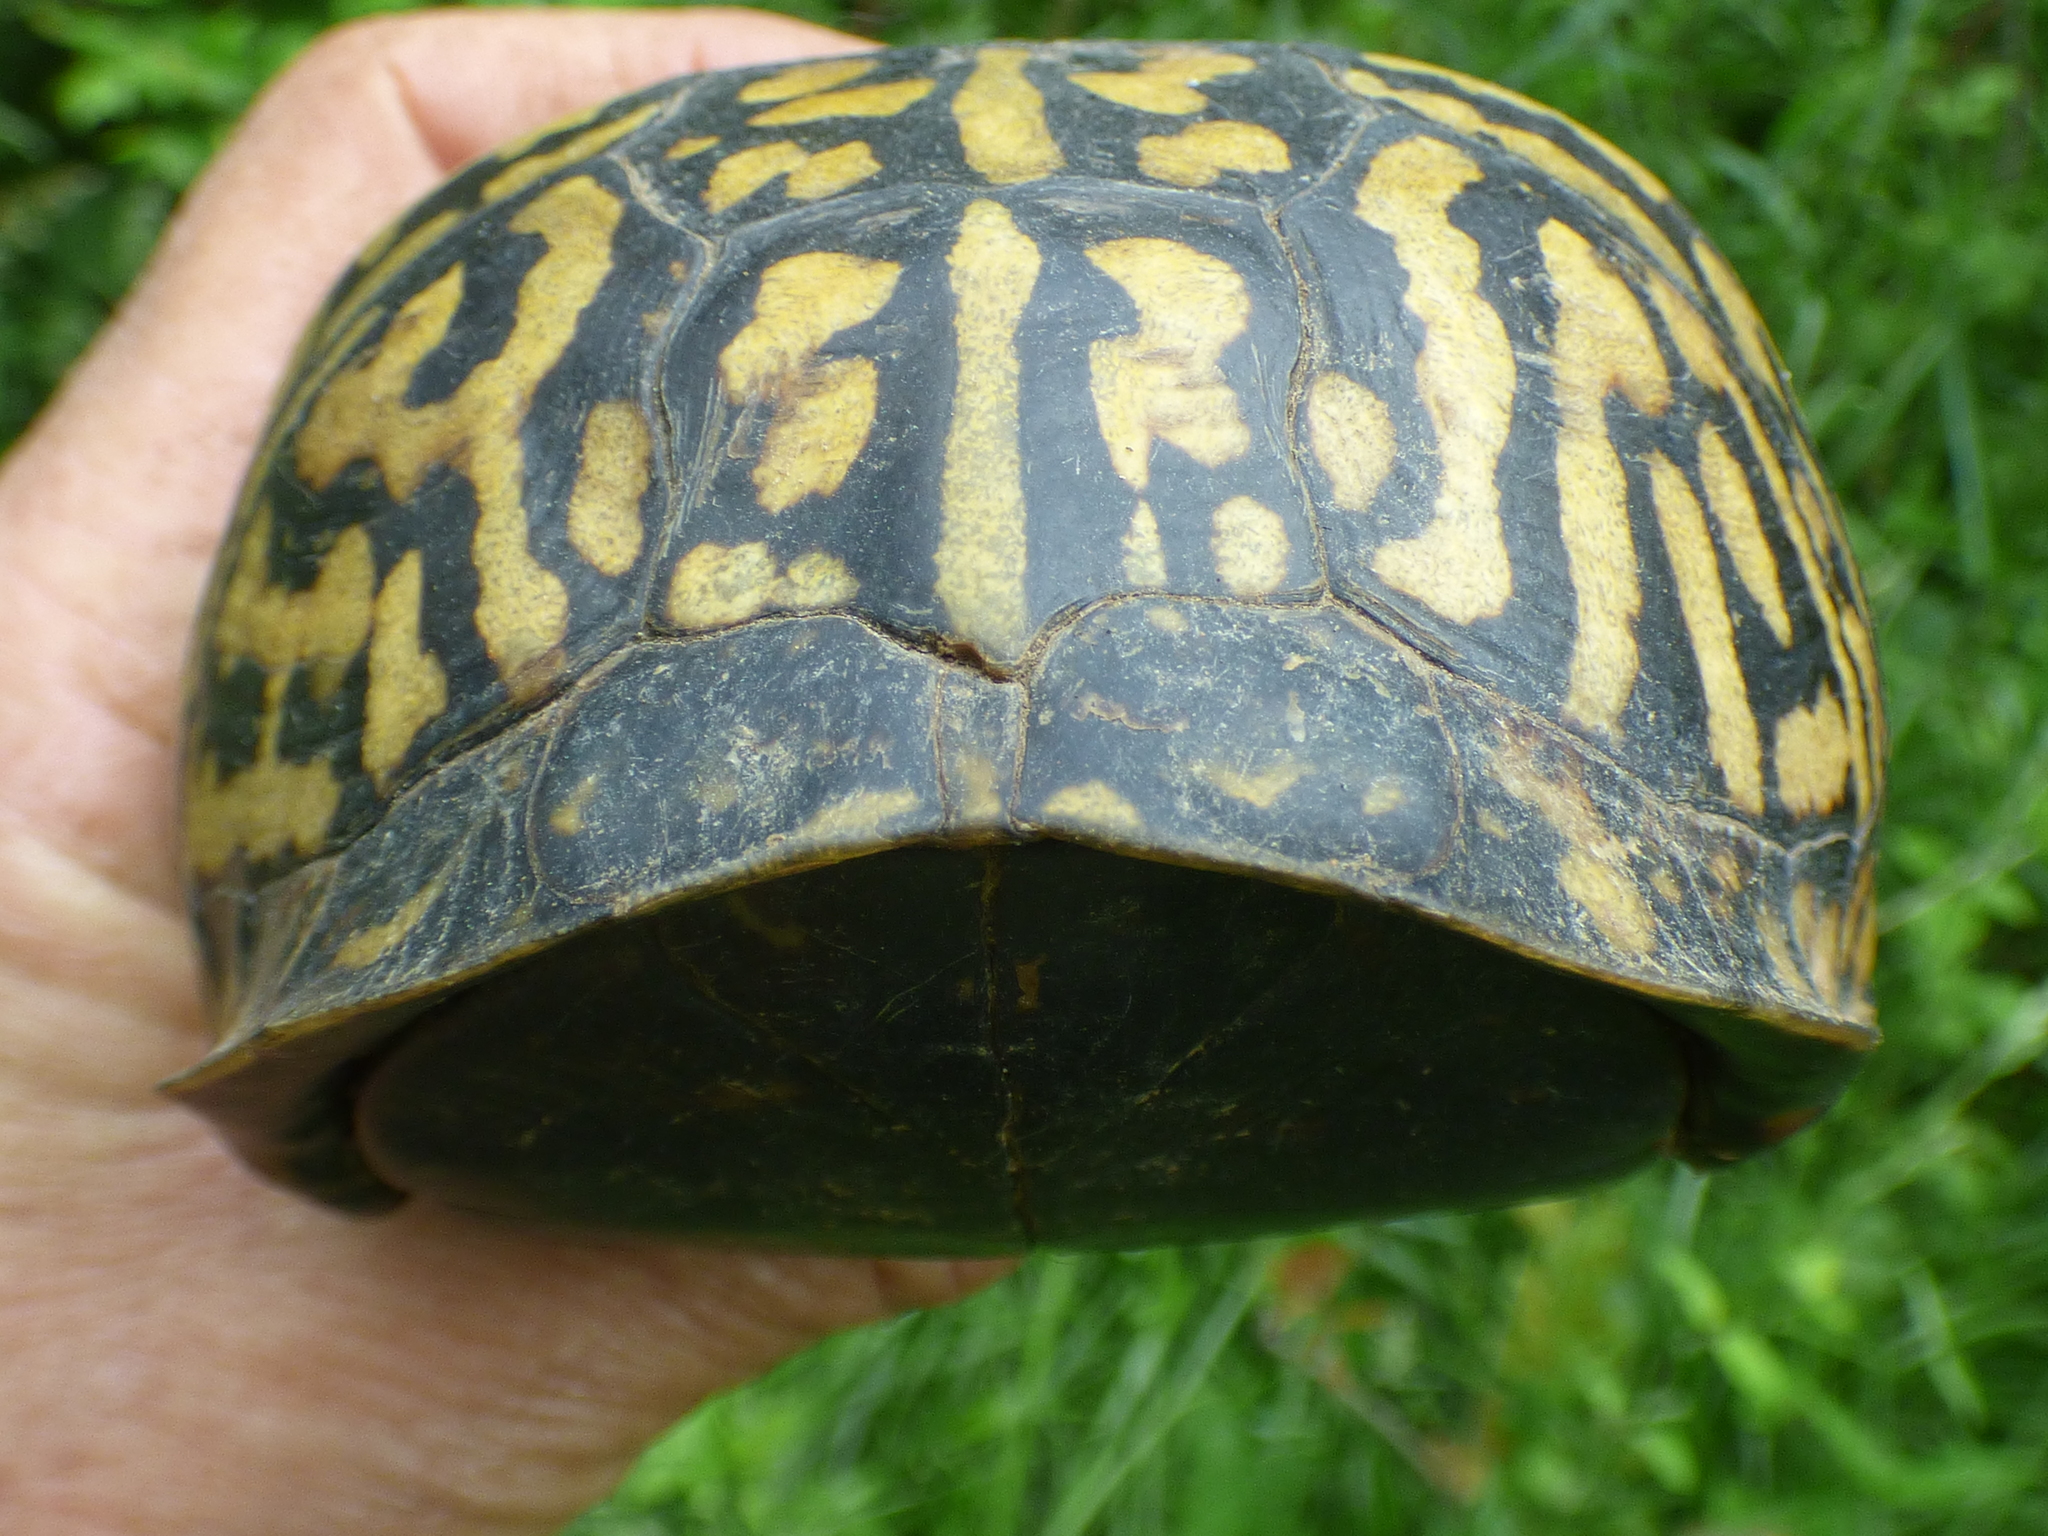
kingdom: Animalia
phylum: Chordata
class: Testudines
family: Emydidae
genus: Terrapene
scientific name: Terrapene carolina
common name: Common box turtle
